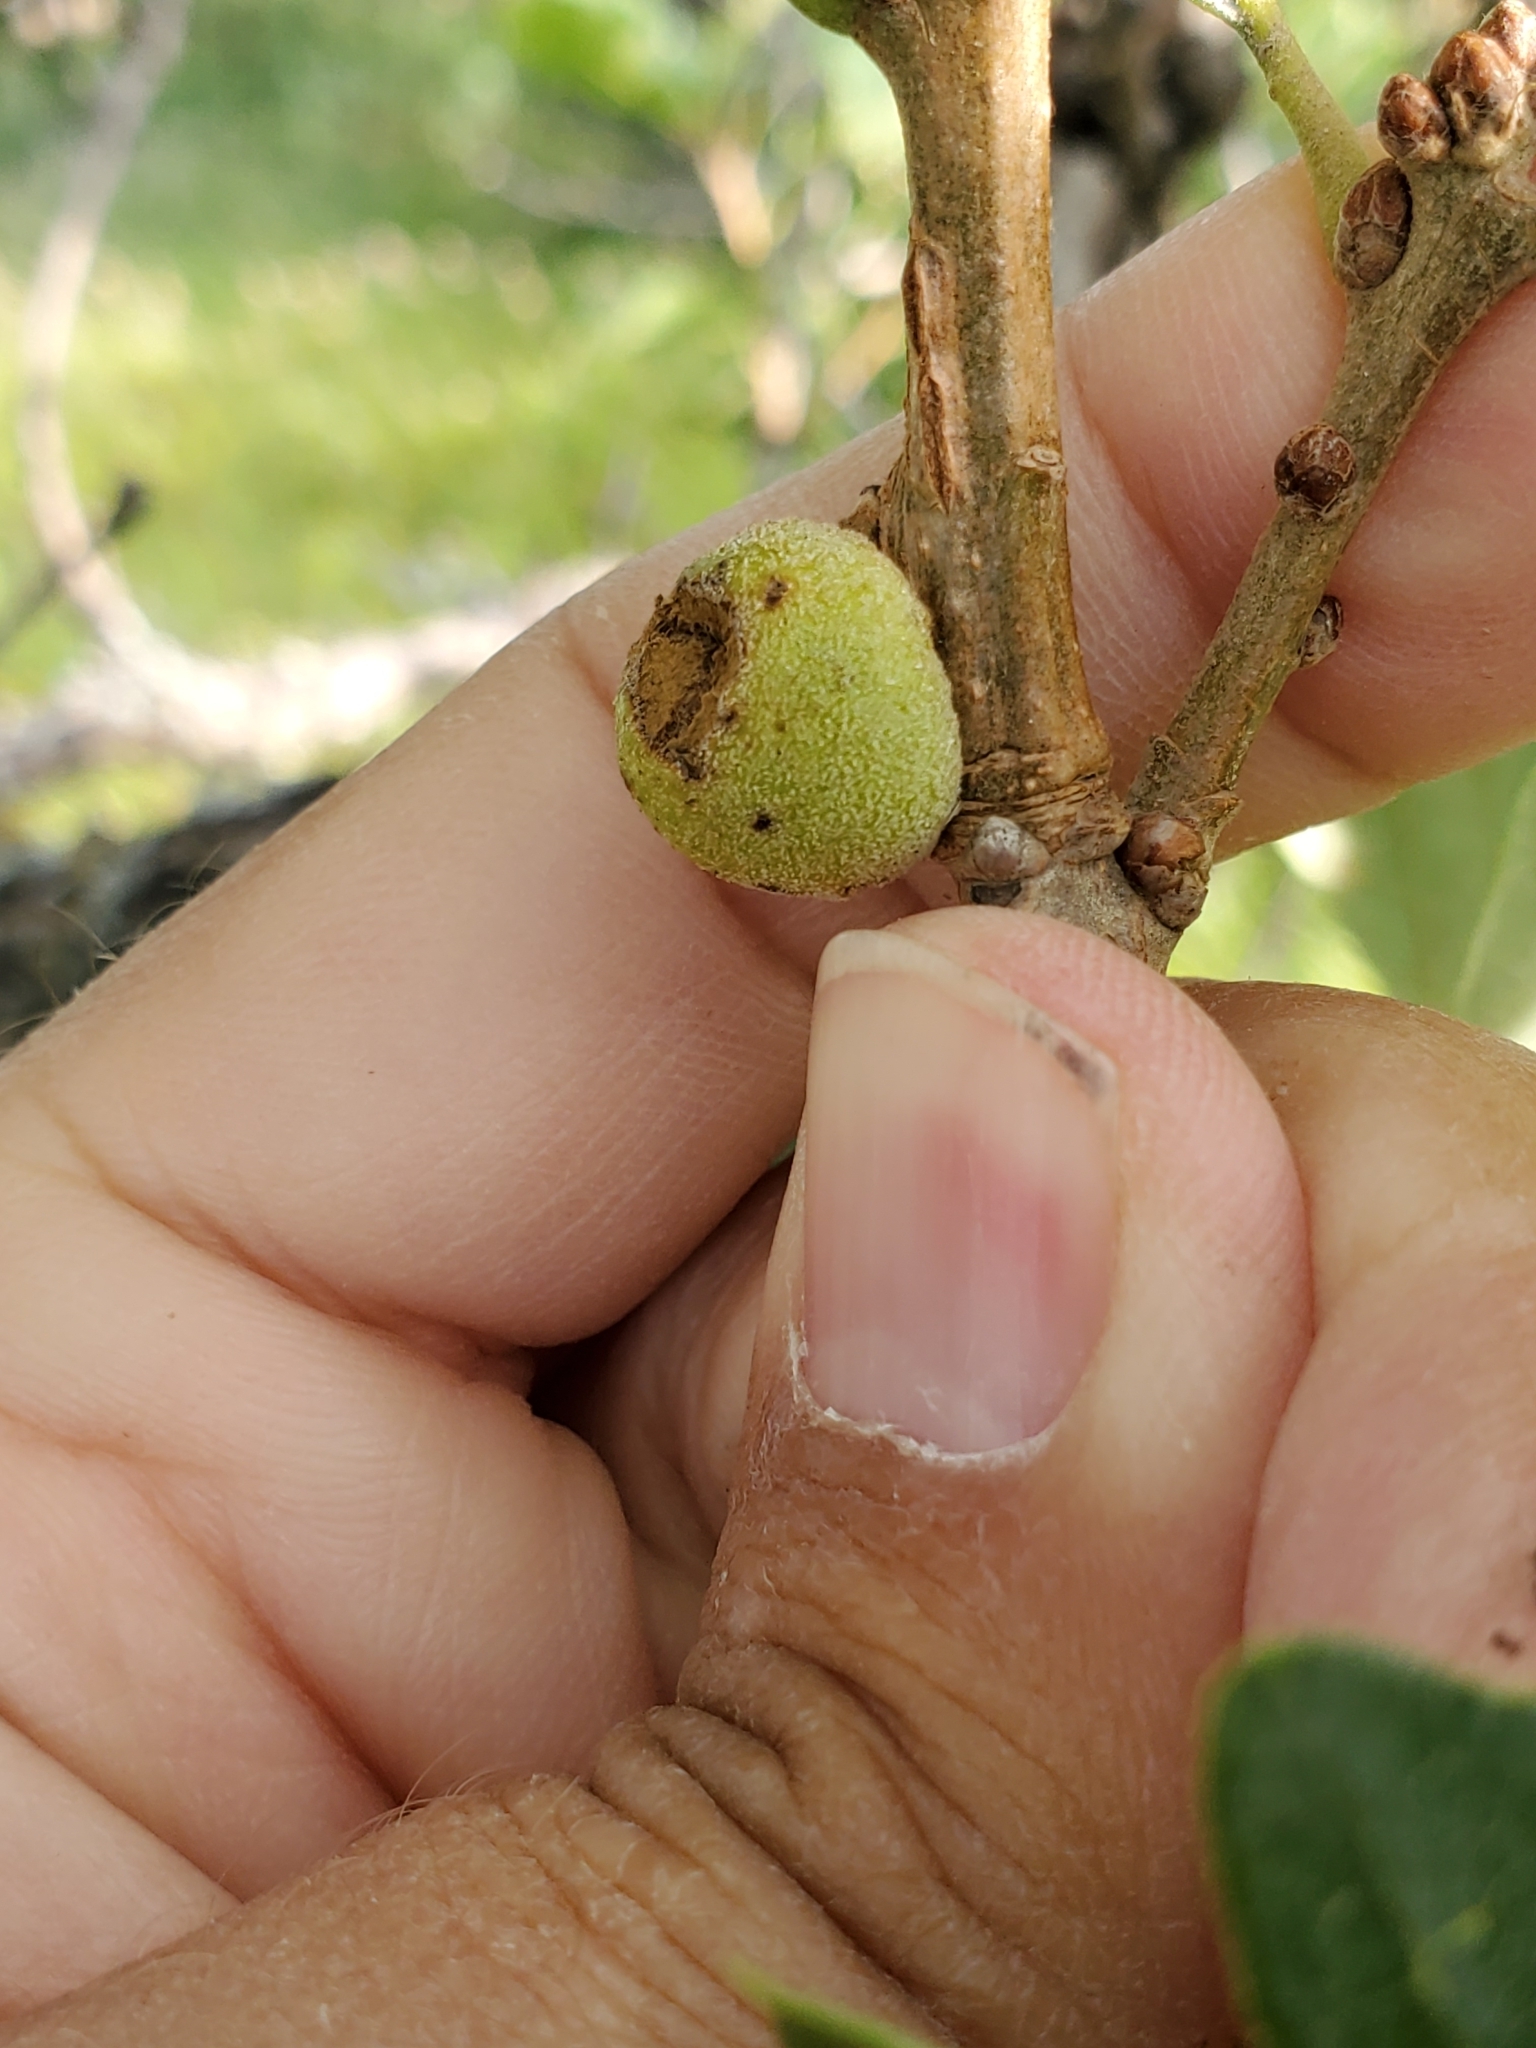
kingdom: Animalia
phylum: Arthropoda
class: Insecta
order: Hymenoptera
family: Cynipidae
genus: Disholcaspis
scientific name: Disholcaspis
